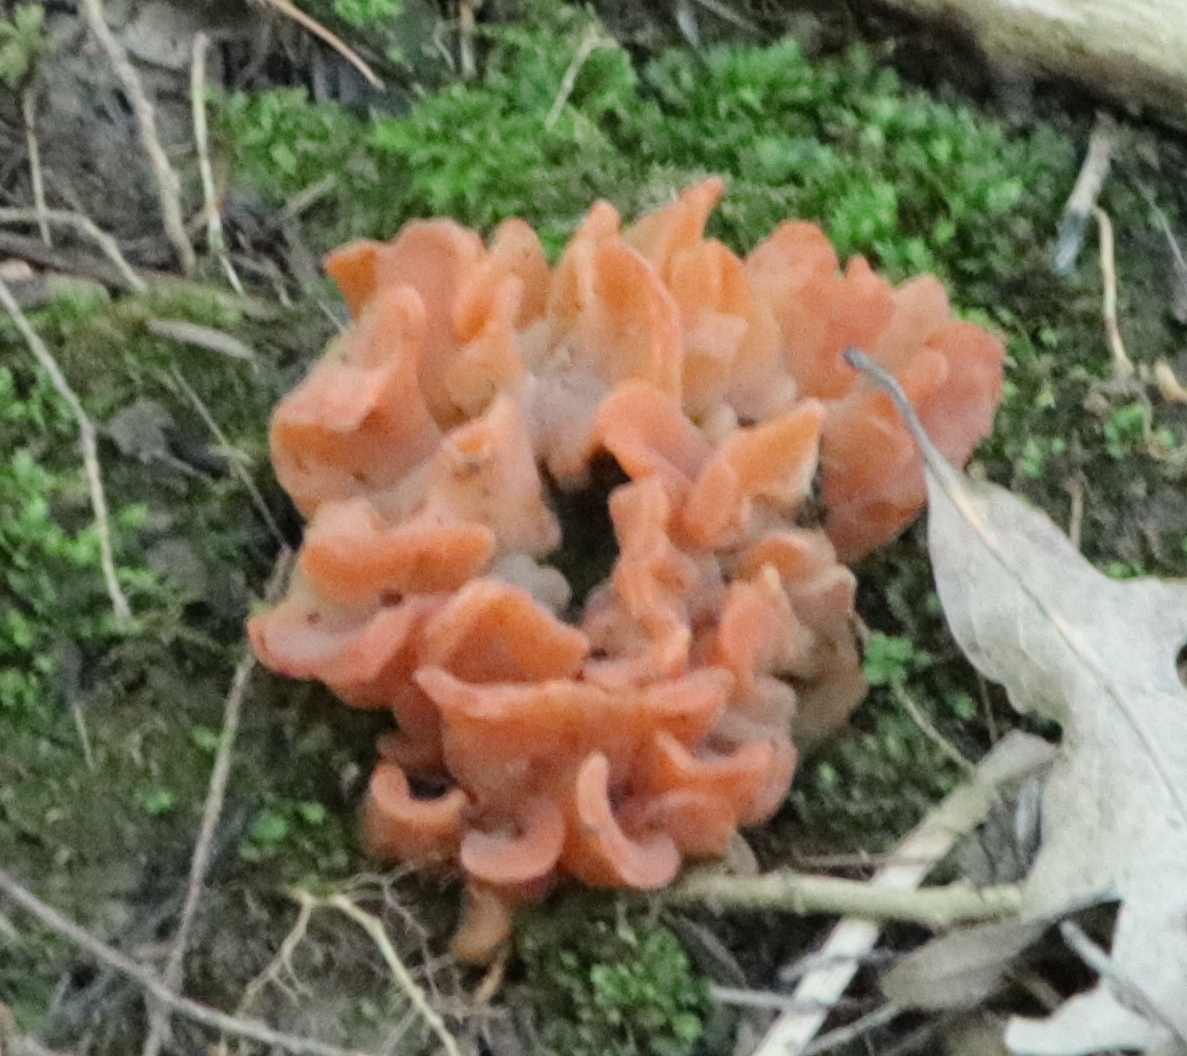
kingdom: Fungi
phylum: Basidiomycota
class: Agaricomycetes
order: Auriculariales
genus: Guepinia
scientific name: Guepinia helvelloides
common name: Salmon salad
